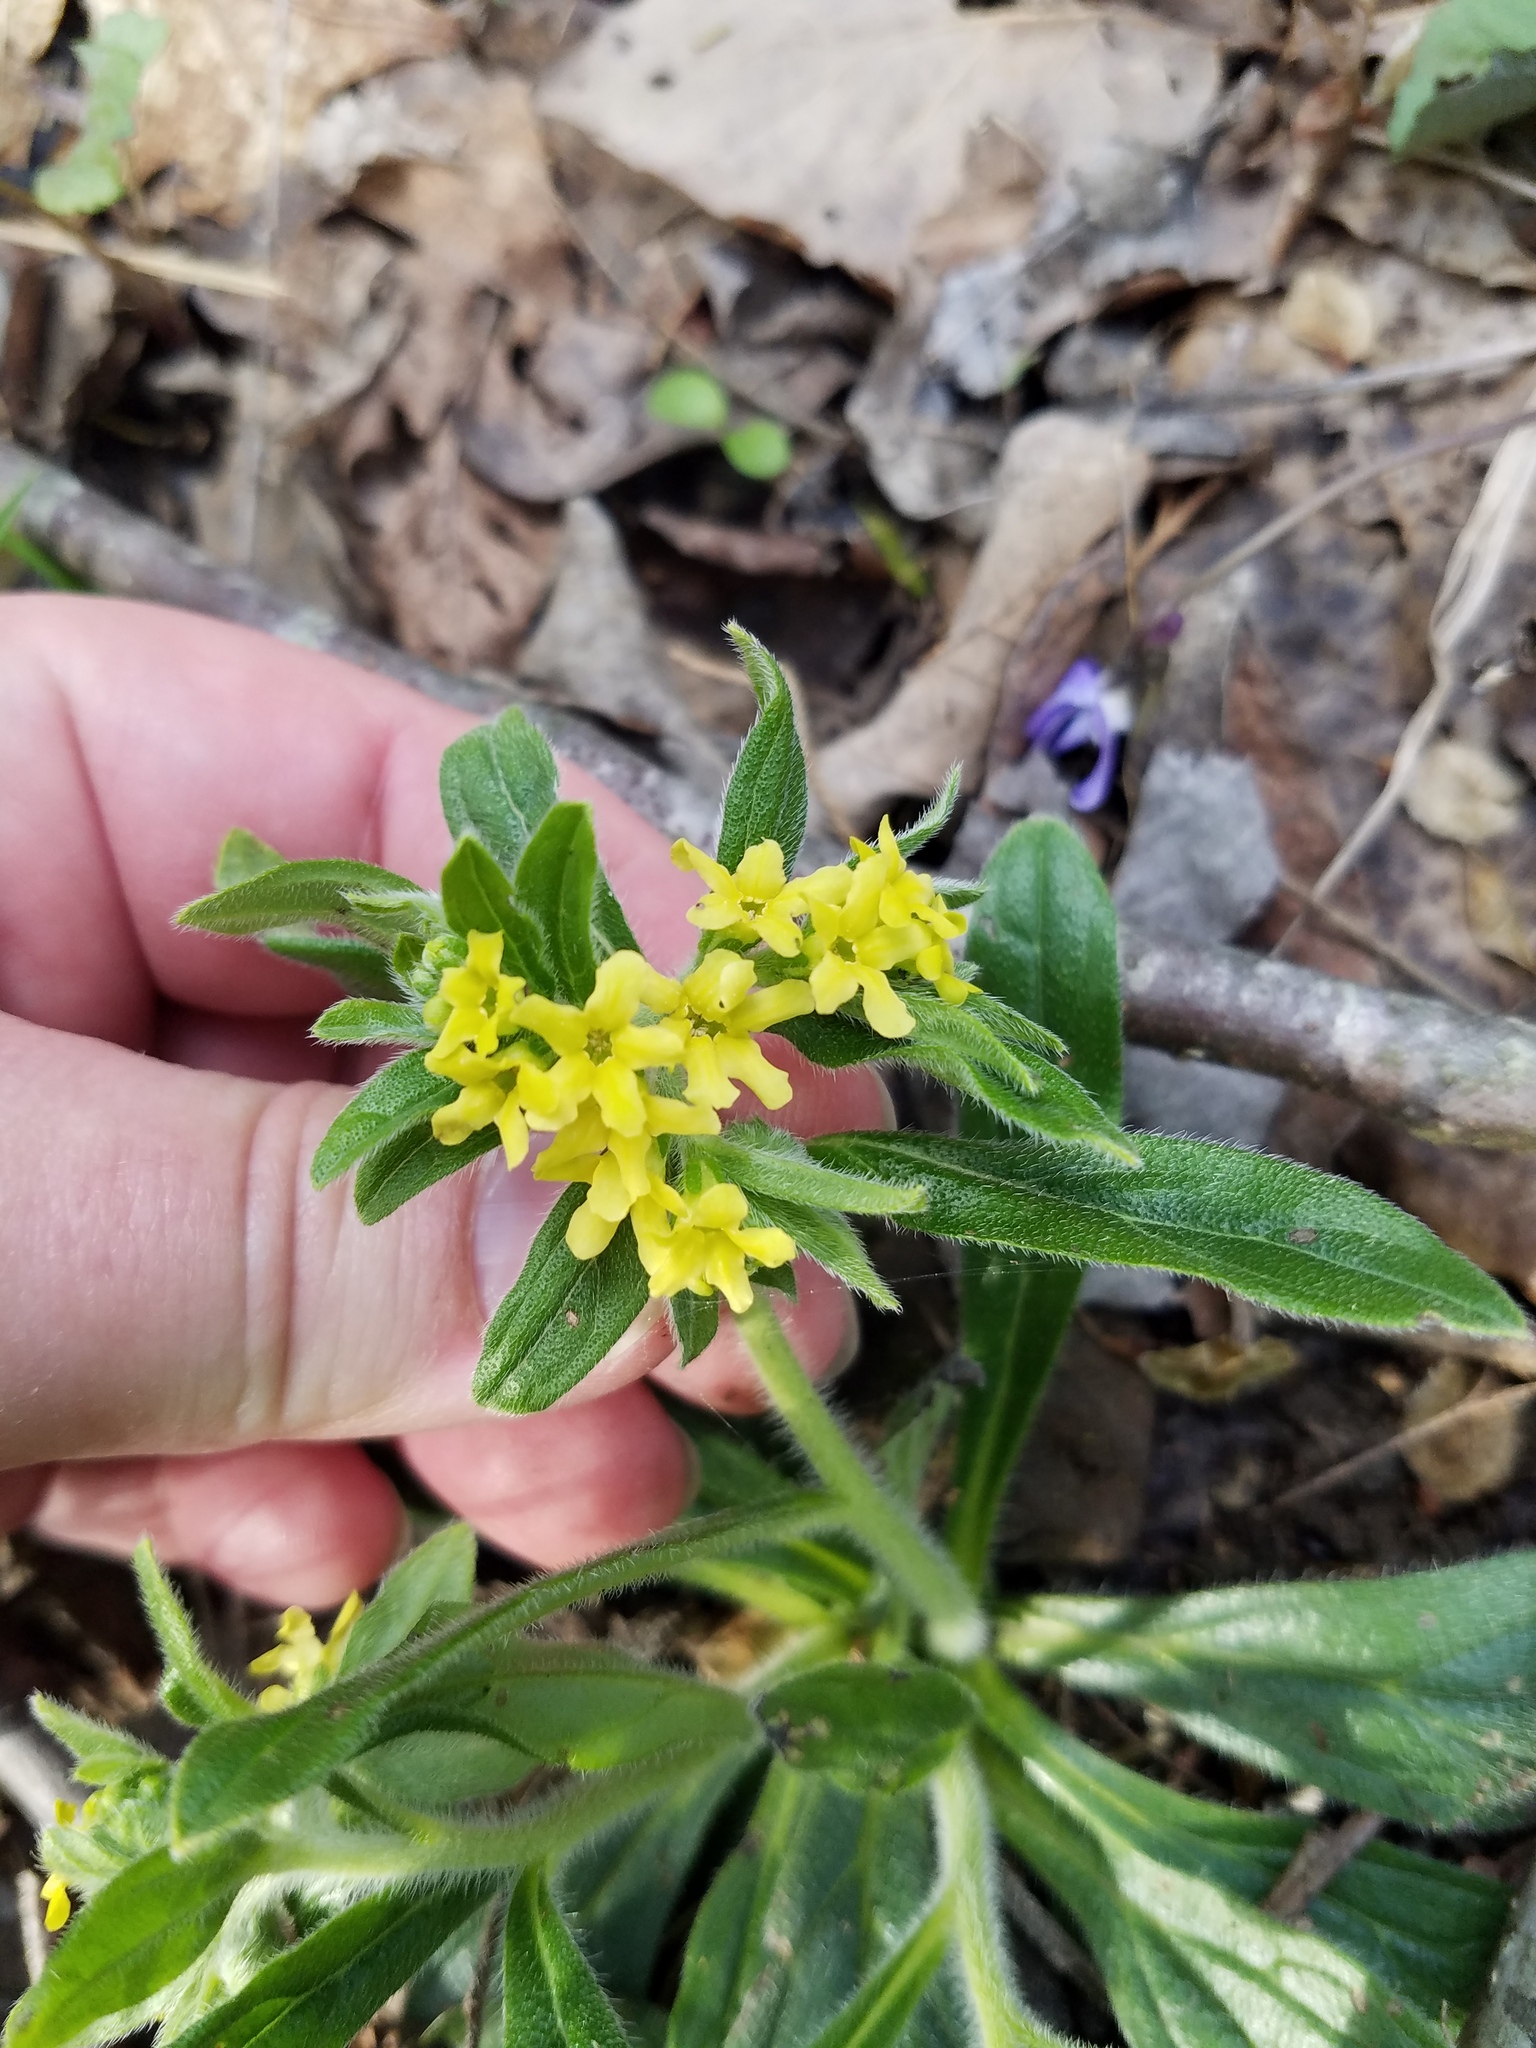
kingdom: Plantae
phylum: Tracheophyta
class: Magnoliopsida
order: Boraginales
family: Boraginaceae
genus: Lithospermum
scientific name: Lithospermum tuberosum
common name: Southern stoneseed
